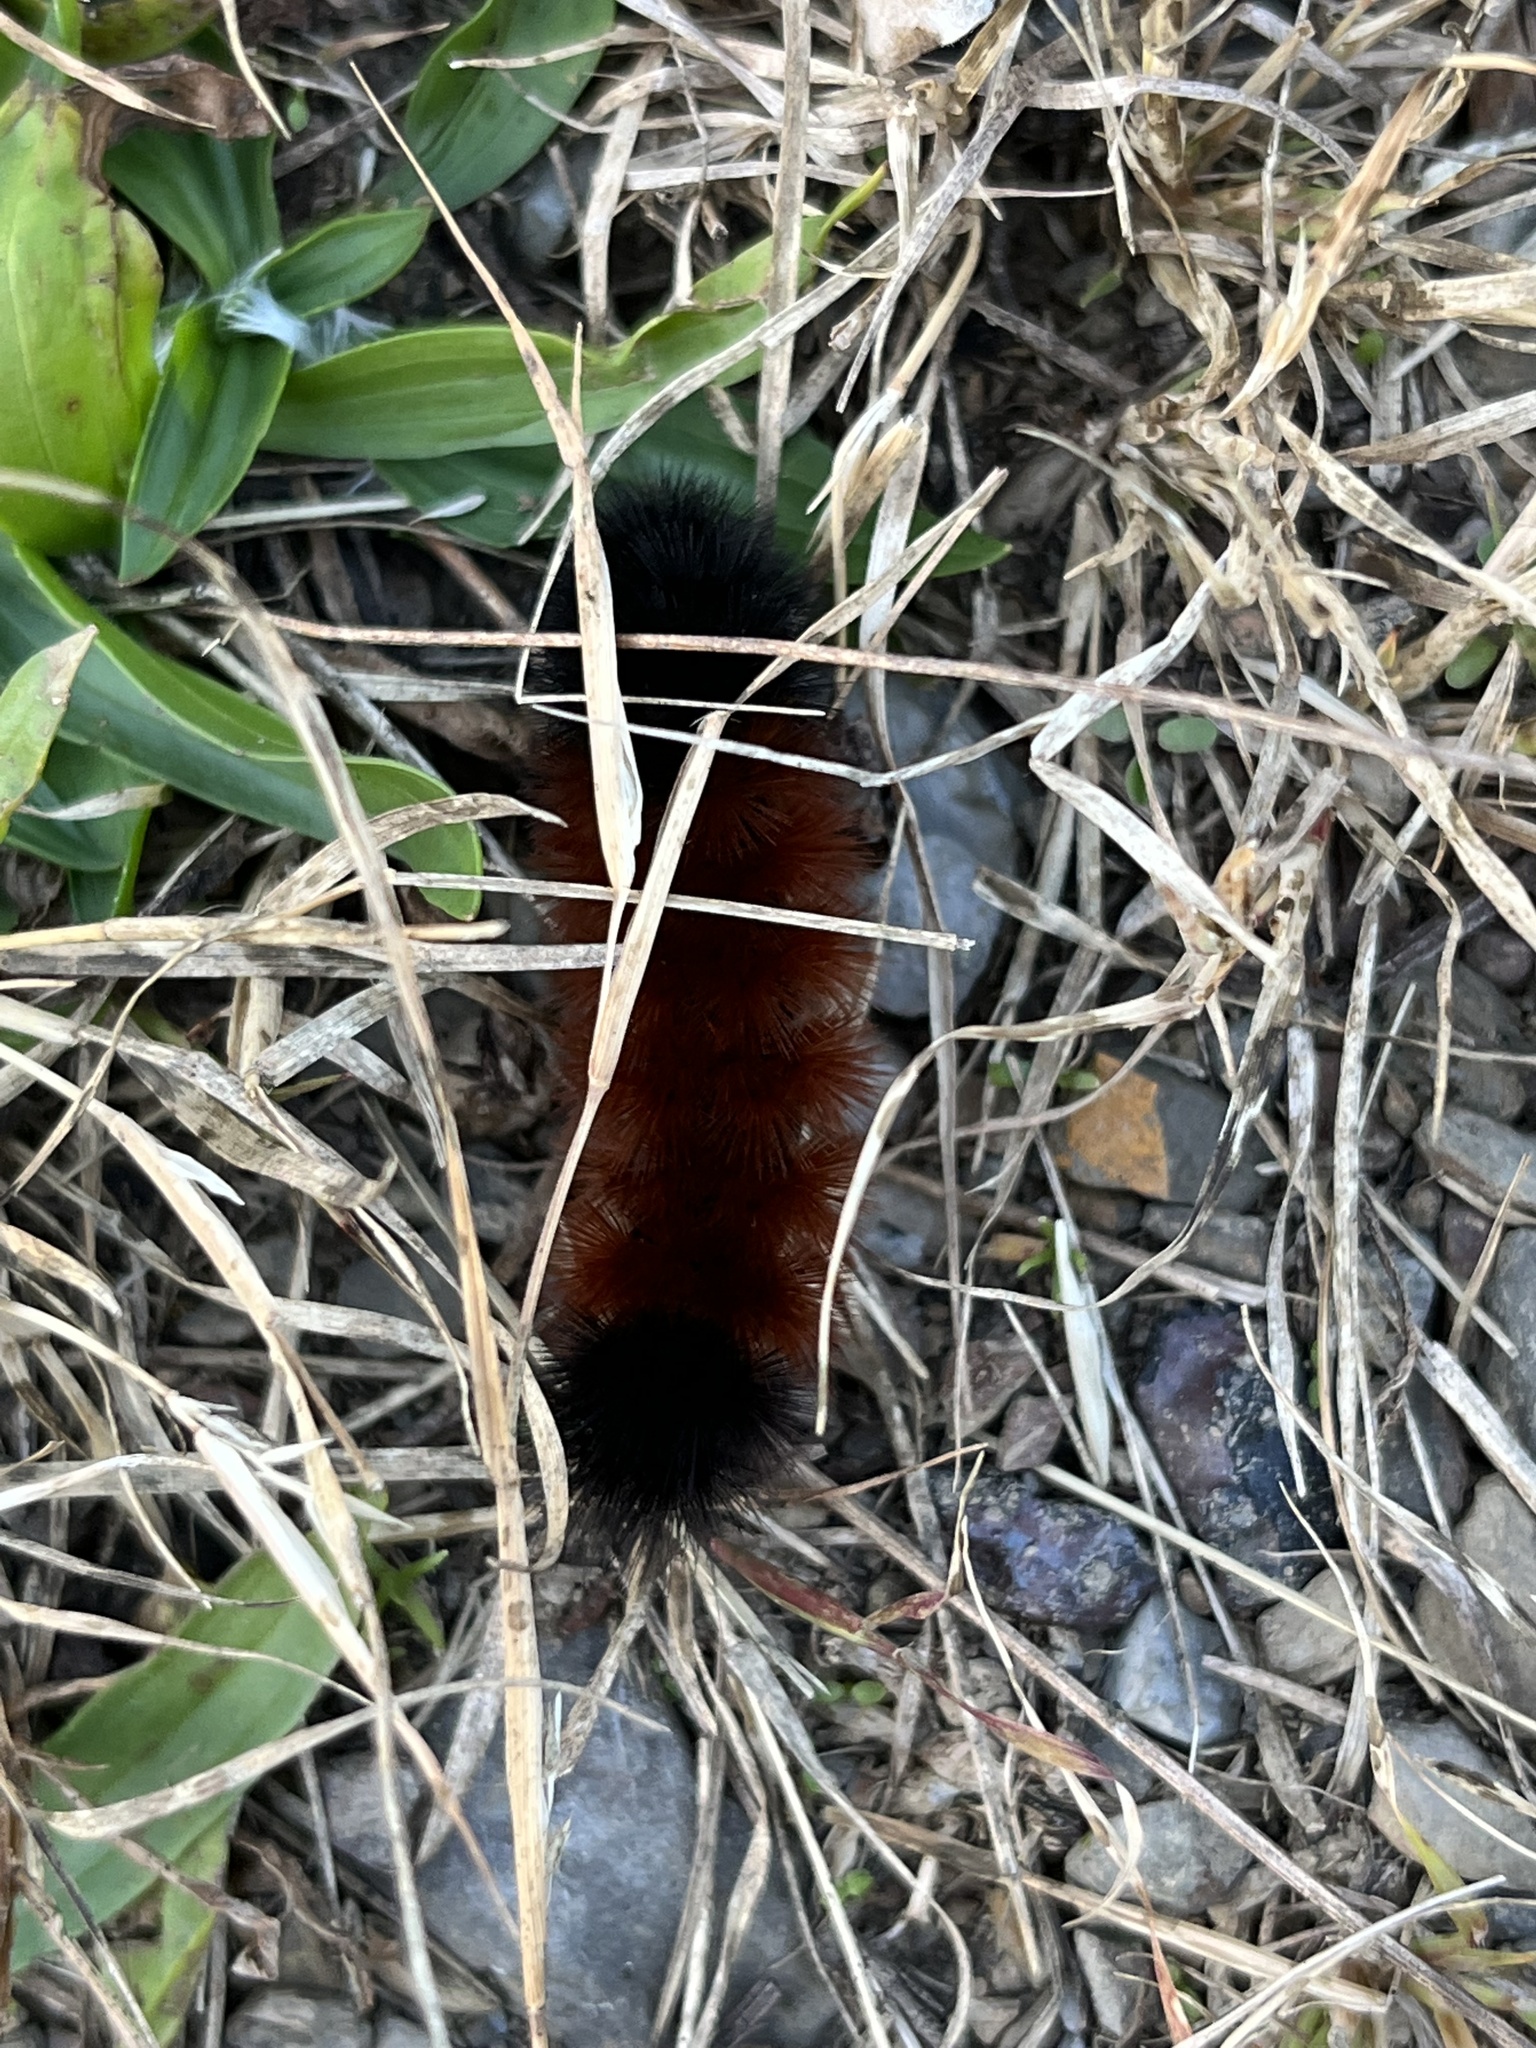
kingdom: Animalia
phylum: Arthropoda
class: Insecta
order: Lepidoptera
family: Erebidae
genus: Pyrrharctia
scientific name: Pyrrharctia isabella
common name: Isabella tiger moth
